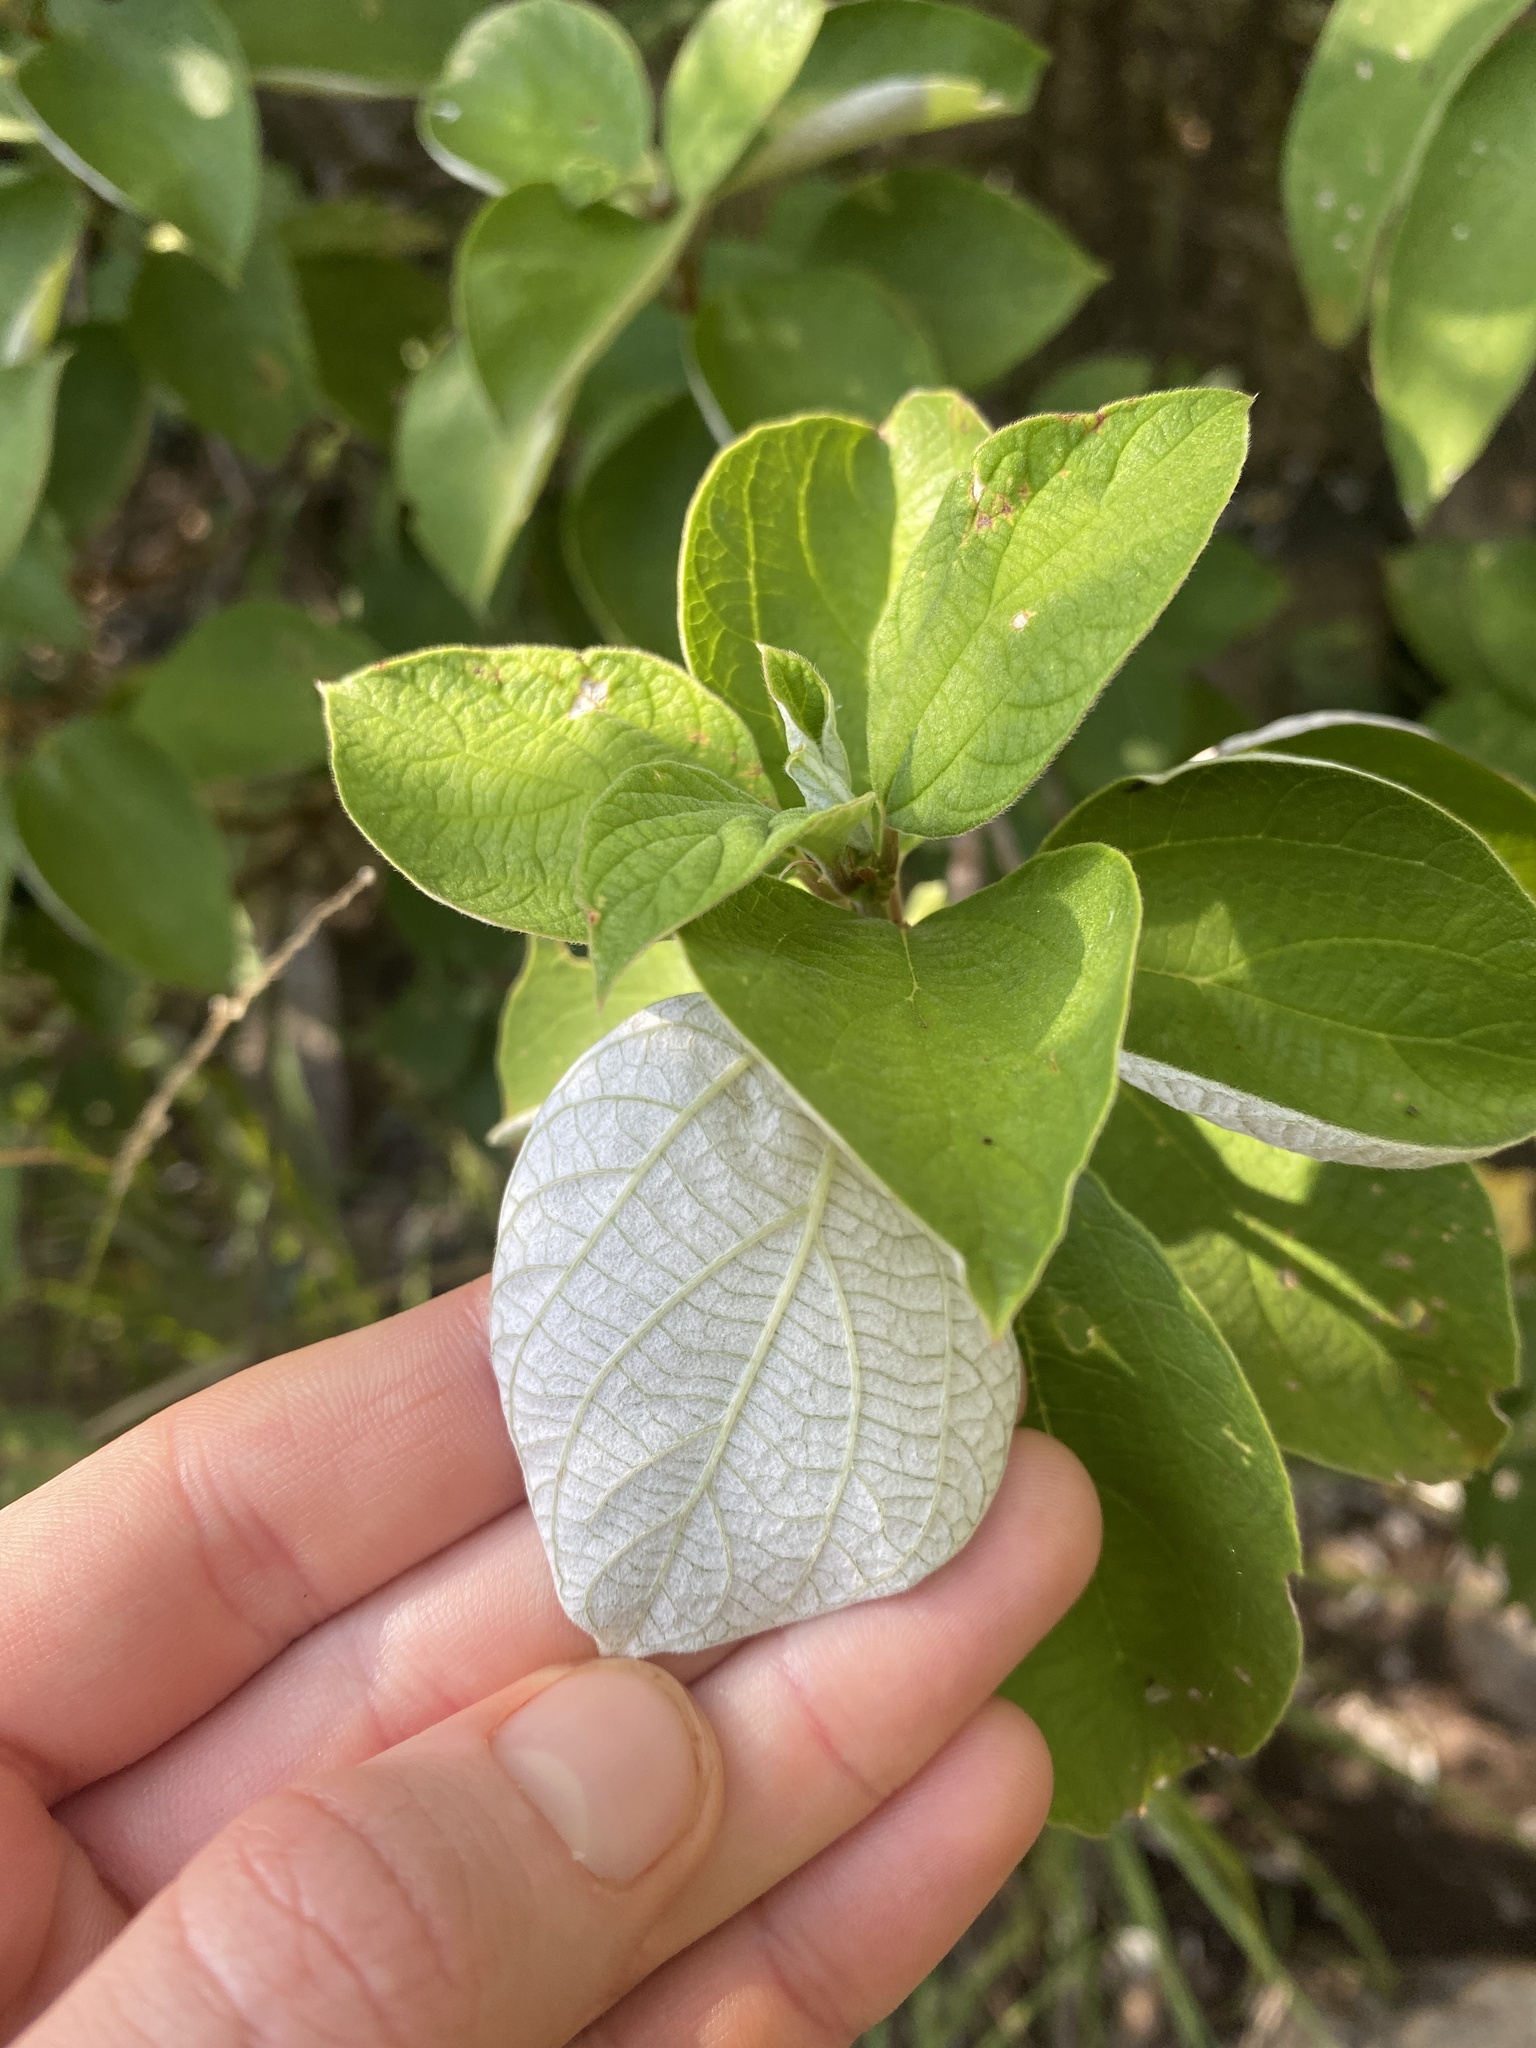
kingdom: Plantae
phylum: Tracheophyta
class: Magnoliopsida
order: Rosales
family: Urticaceae
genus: Pouzolzia
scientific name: Pouzolzia mixta
